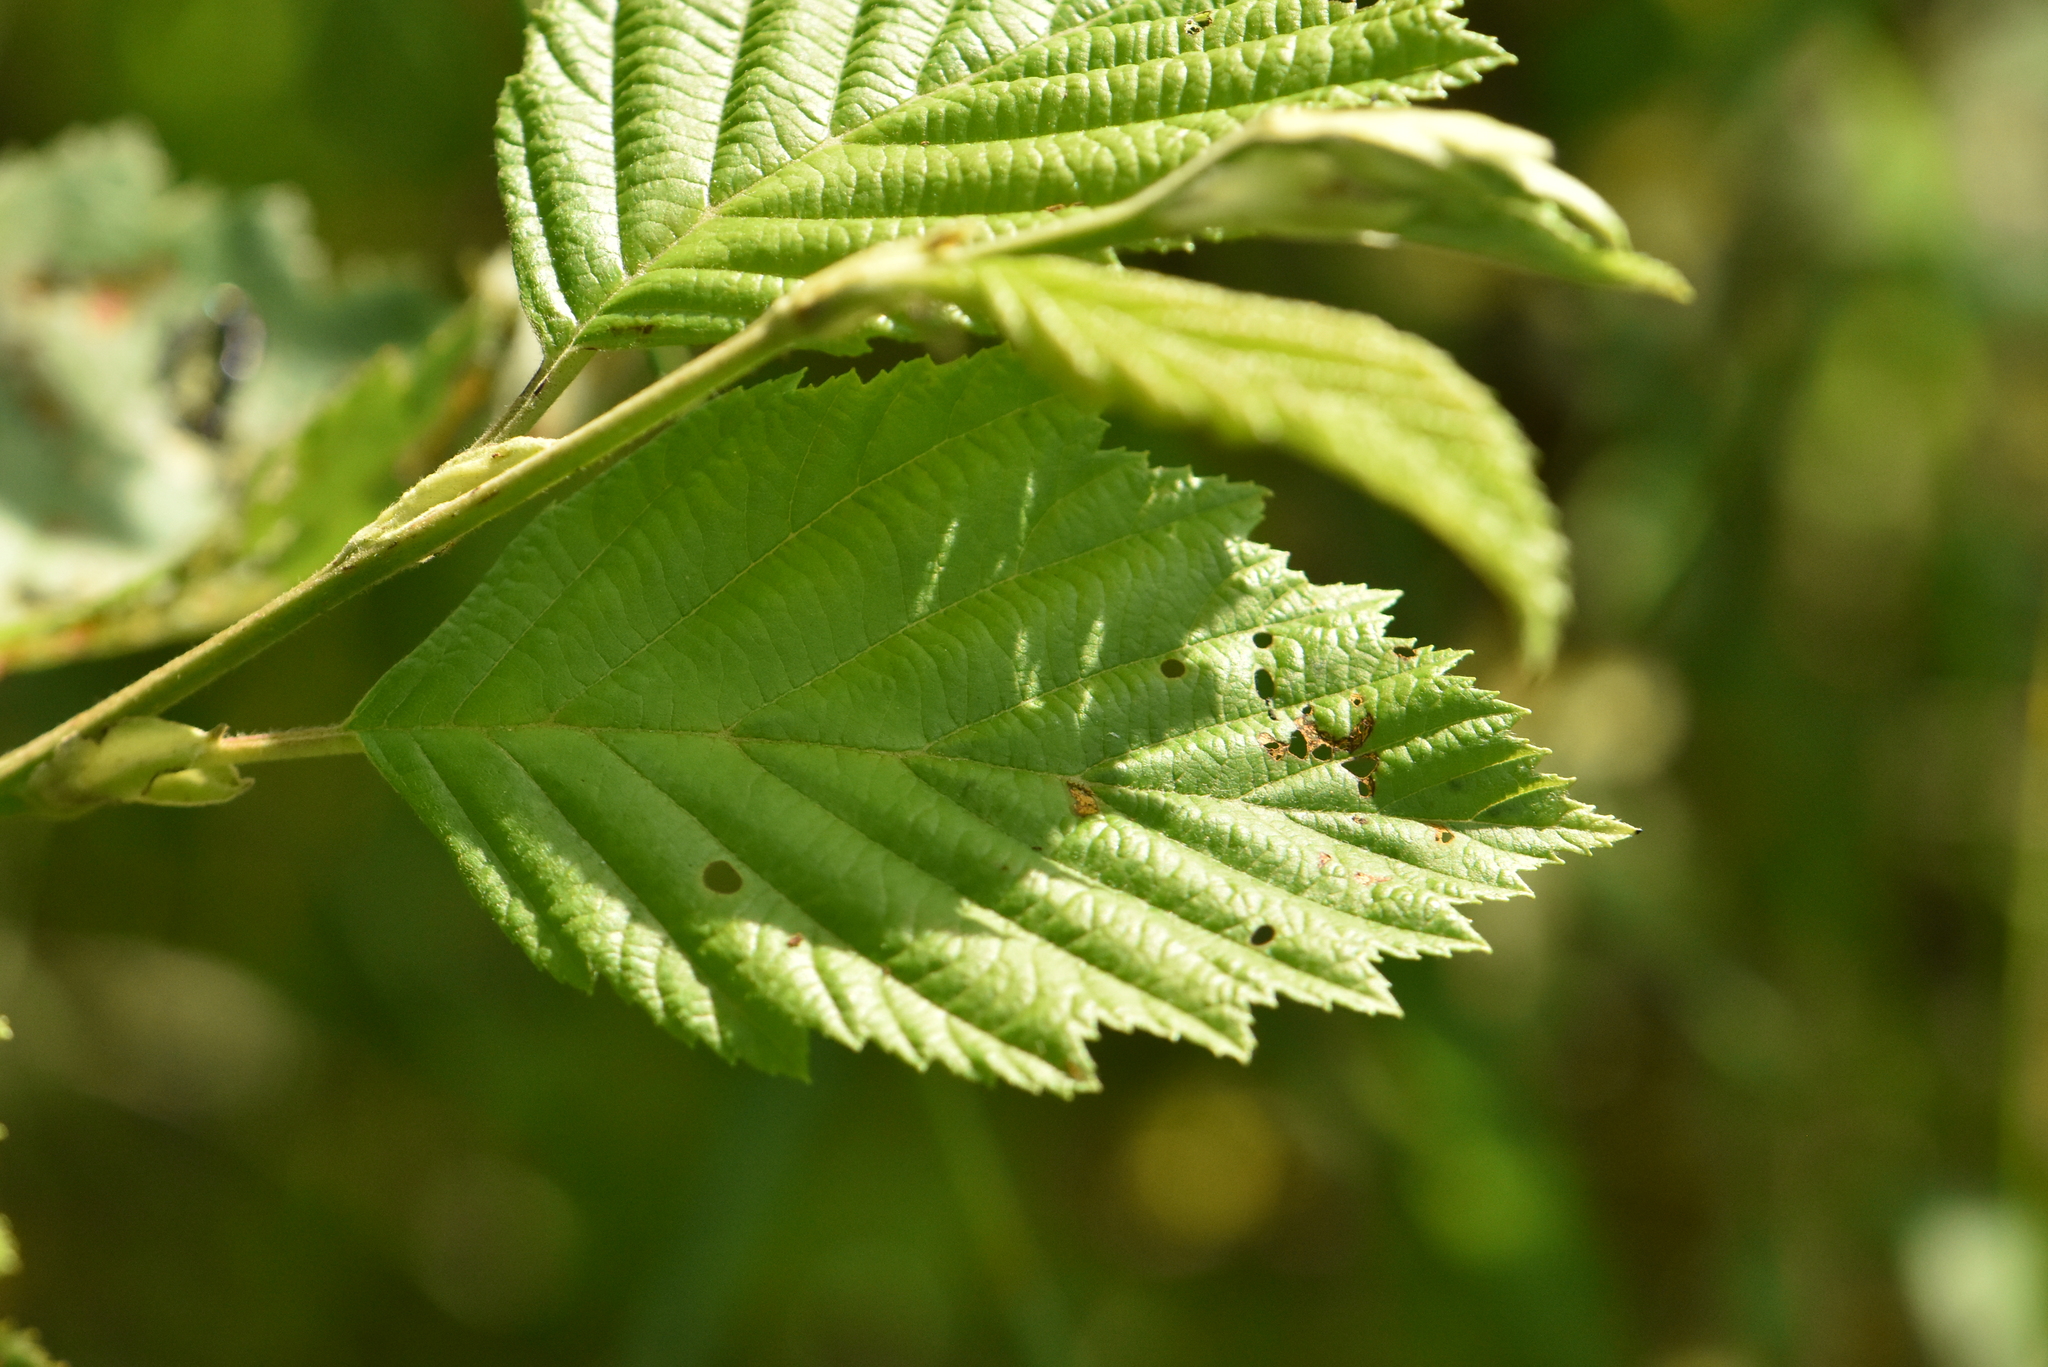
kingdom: Plantae
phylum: Tracheophyta
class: Magnoliopsida
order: Fagales
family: Betulaceae
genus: Alnus
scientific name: Alnus incana
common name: Grey alder
